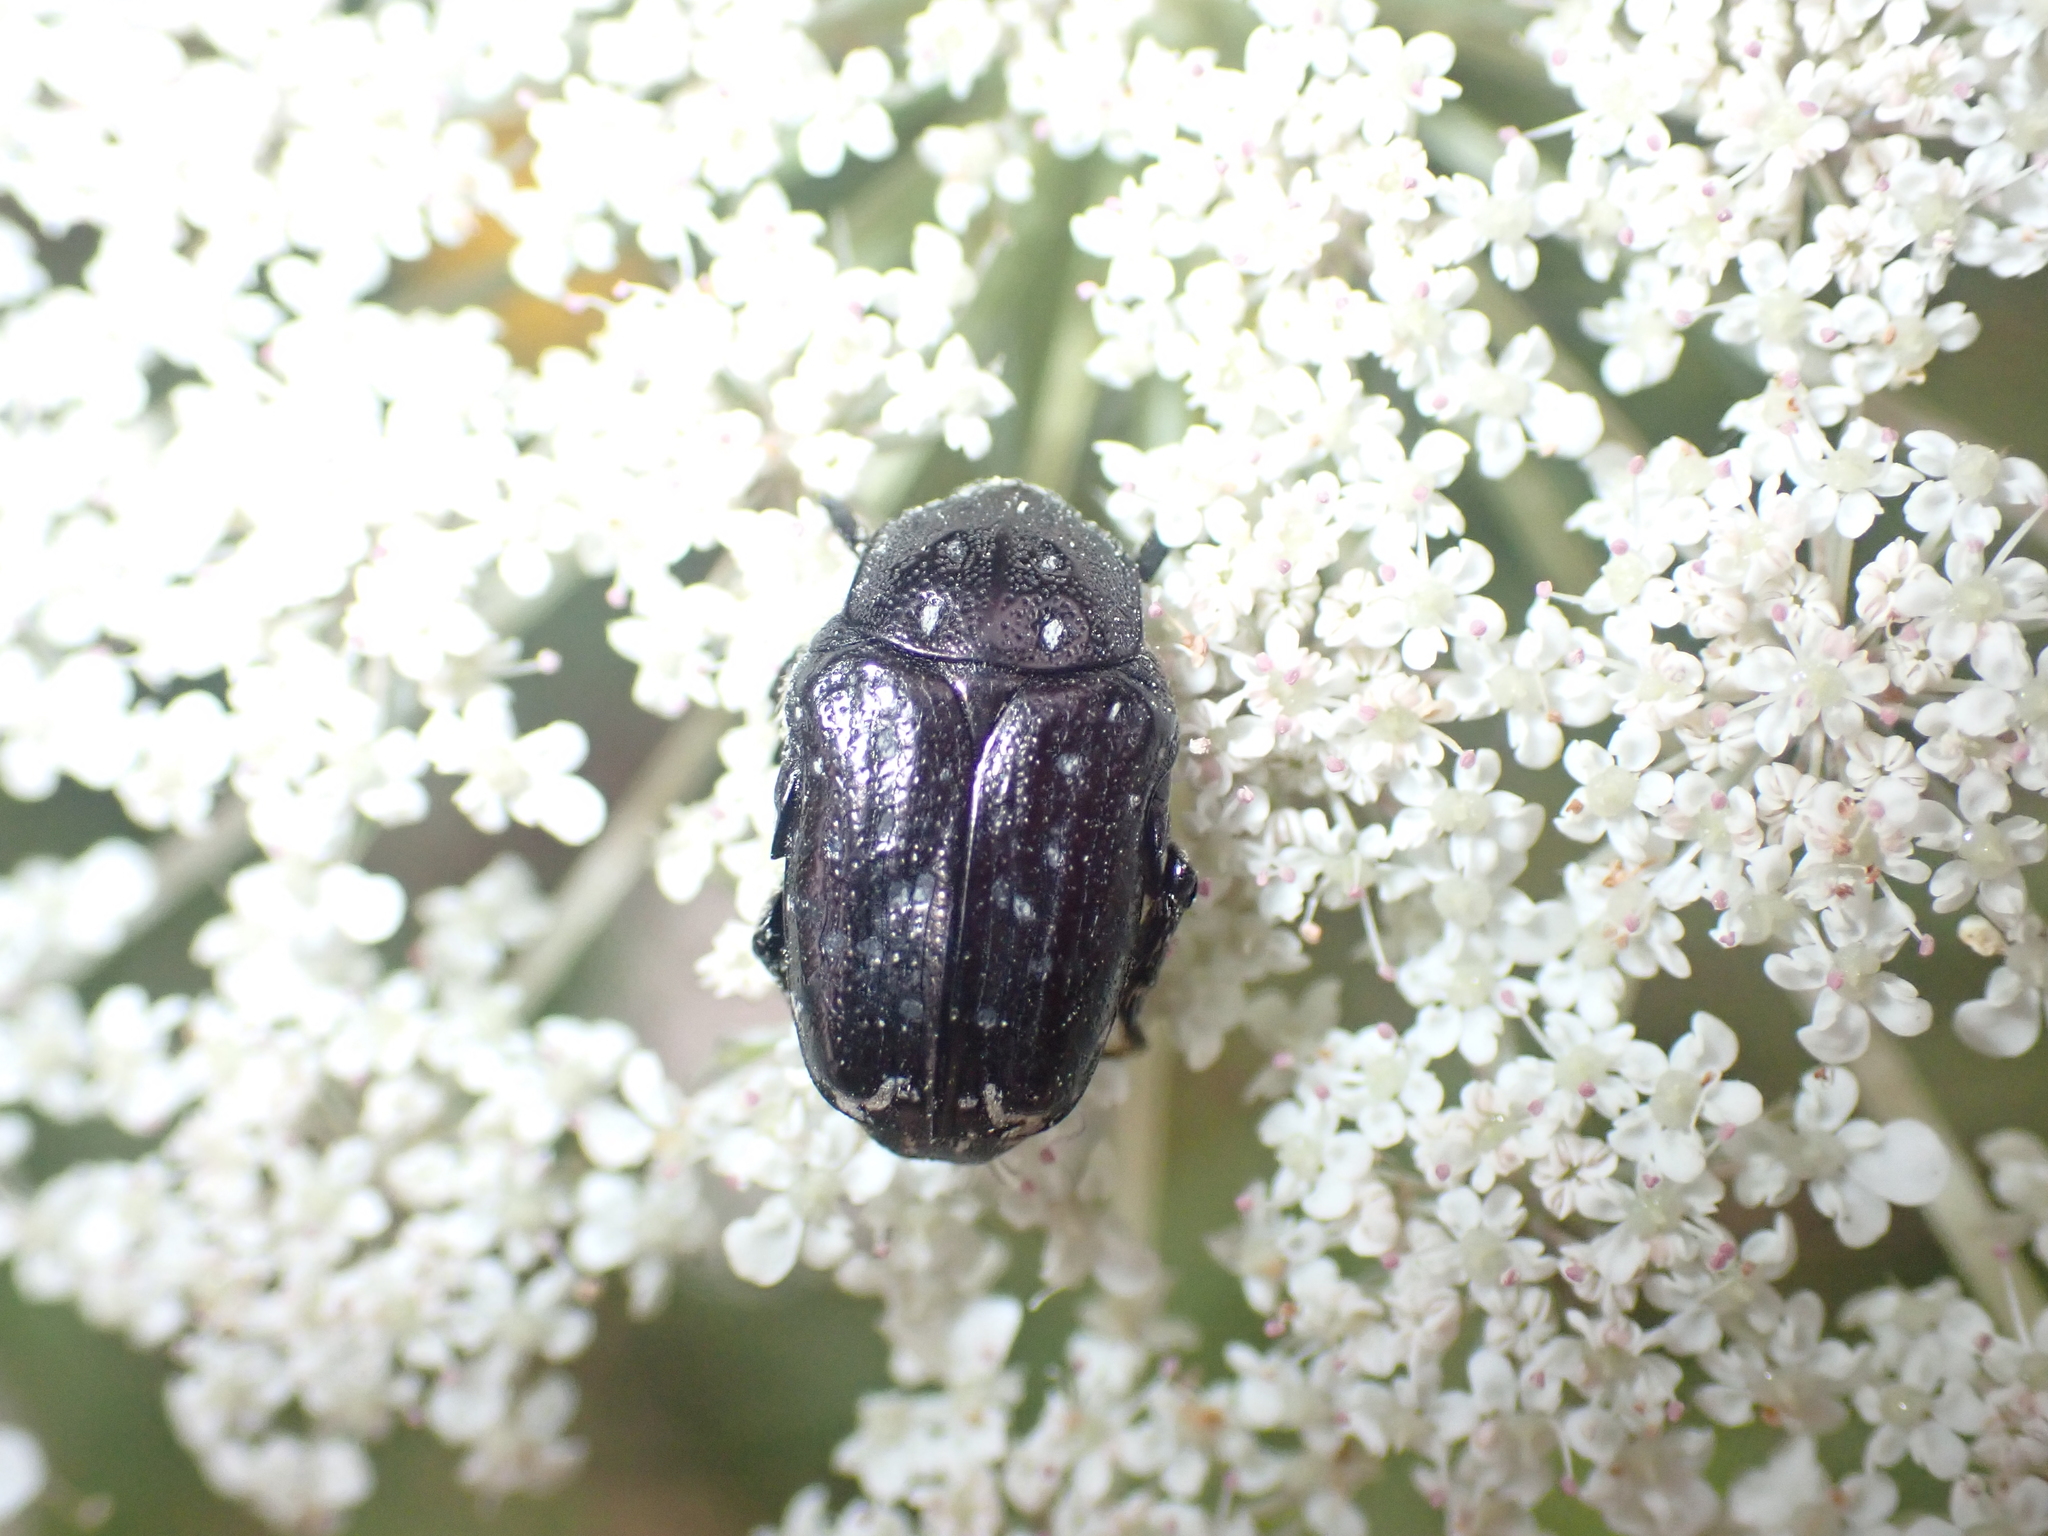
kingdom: Animalia
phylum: Arthropoda
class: Insecta
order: Coleoptera
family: Scarabaeidae
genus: Oxythyrea
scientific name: Oxythyrea funesta
